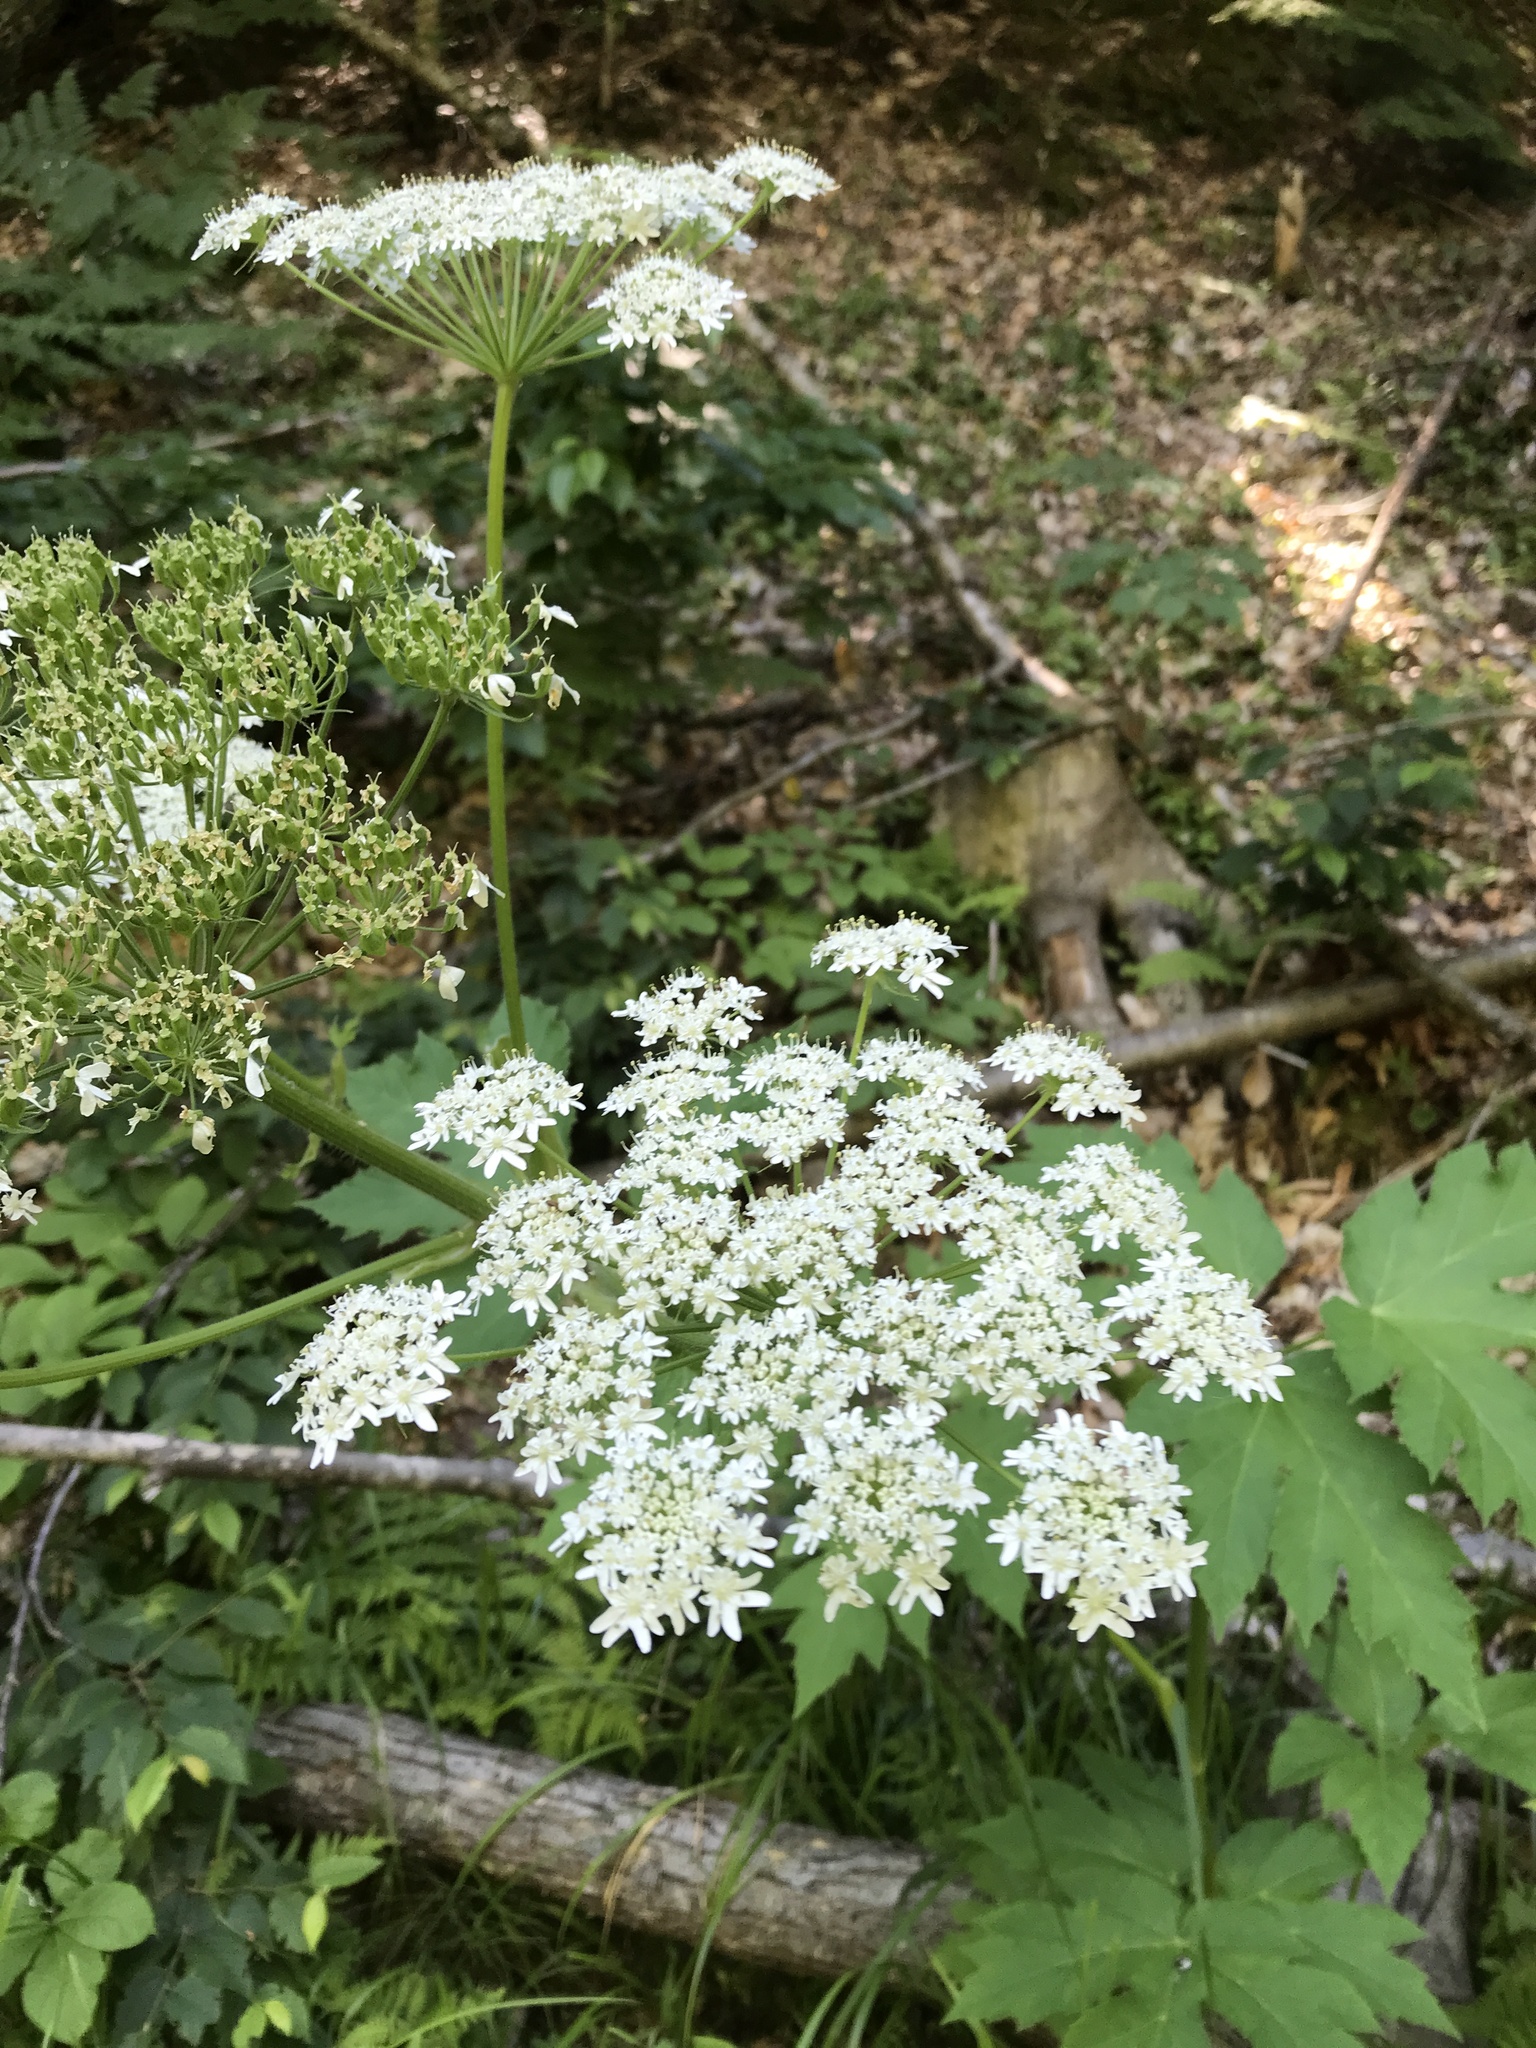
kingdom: Plantae
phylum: Tracheophyta
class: Magnoliopsida
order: Apiales
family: Apiaceae
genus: Heracleum
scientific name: Heracleum maximum
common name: American cow parsnip
